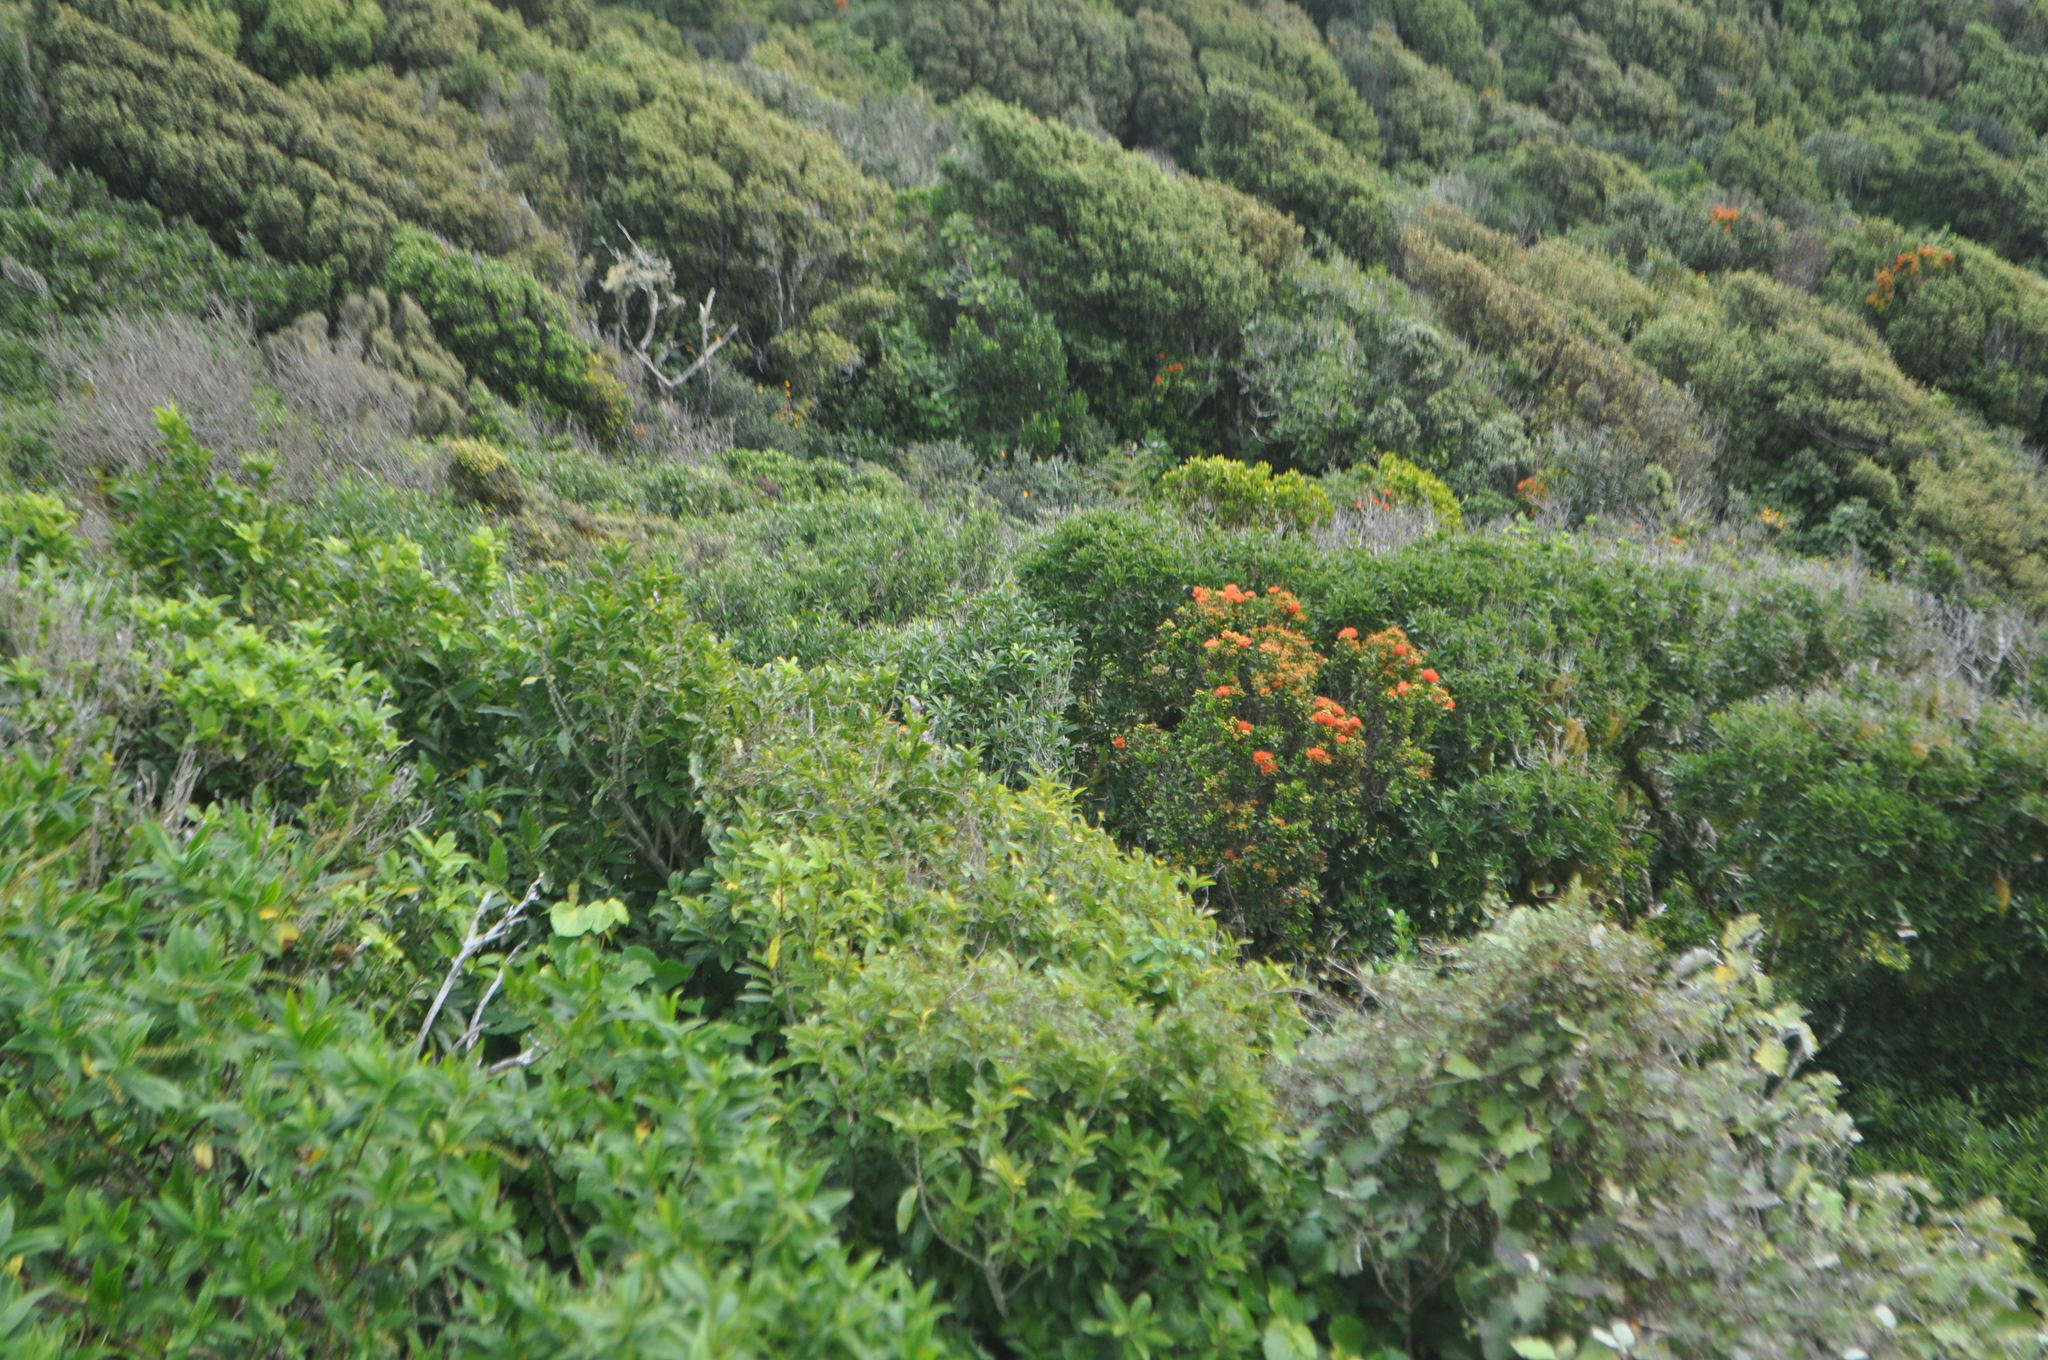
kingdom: Plantae
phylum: Tracheophyta
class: Magnoliopsida
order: Myrtales
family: Myrtaceae
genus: Metrosideros
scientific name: Metrosideros fulgens
